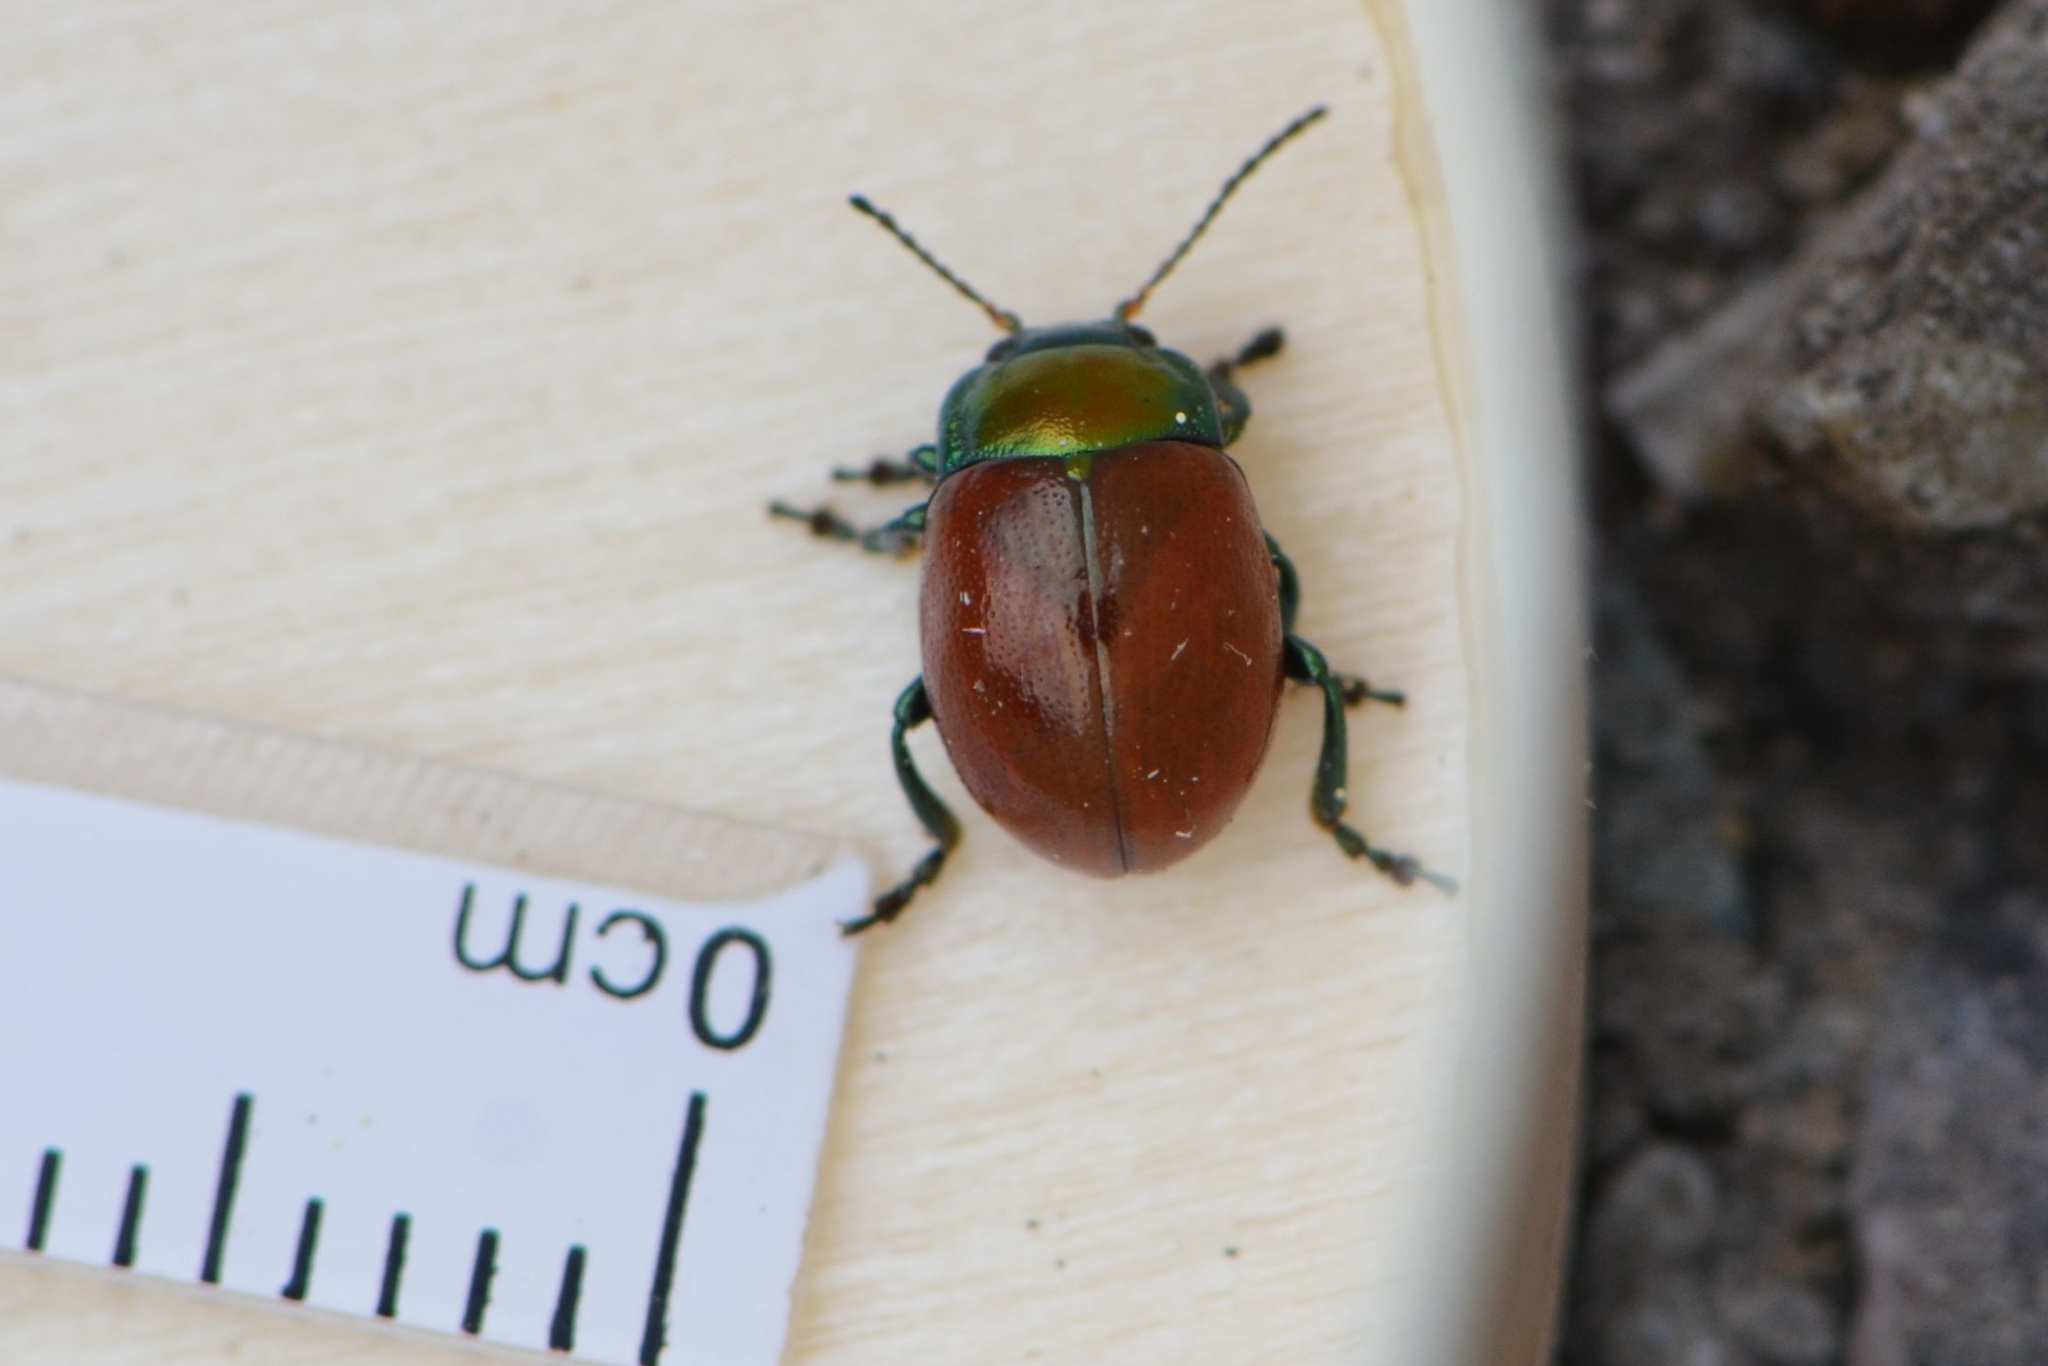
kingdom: Animalia
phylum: Arthropoda
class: Insecta
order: Coleoptera
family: Chrysomelidae
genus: Chrysomela
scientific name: Chrysomela polita
